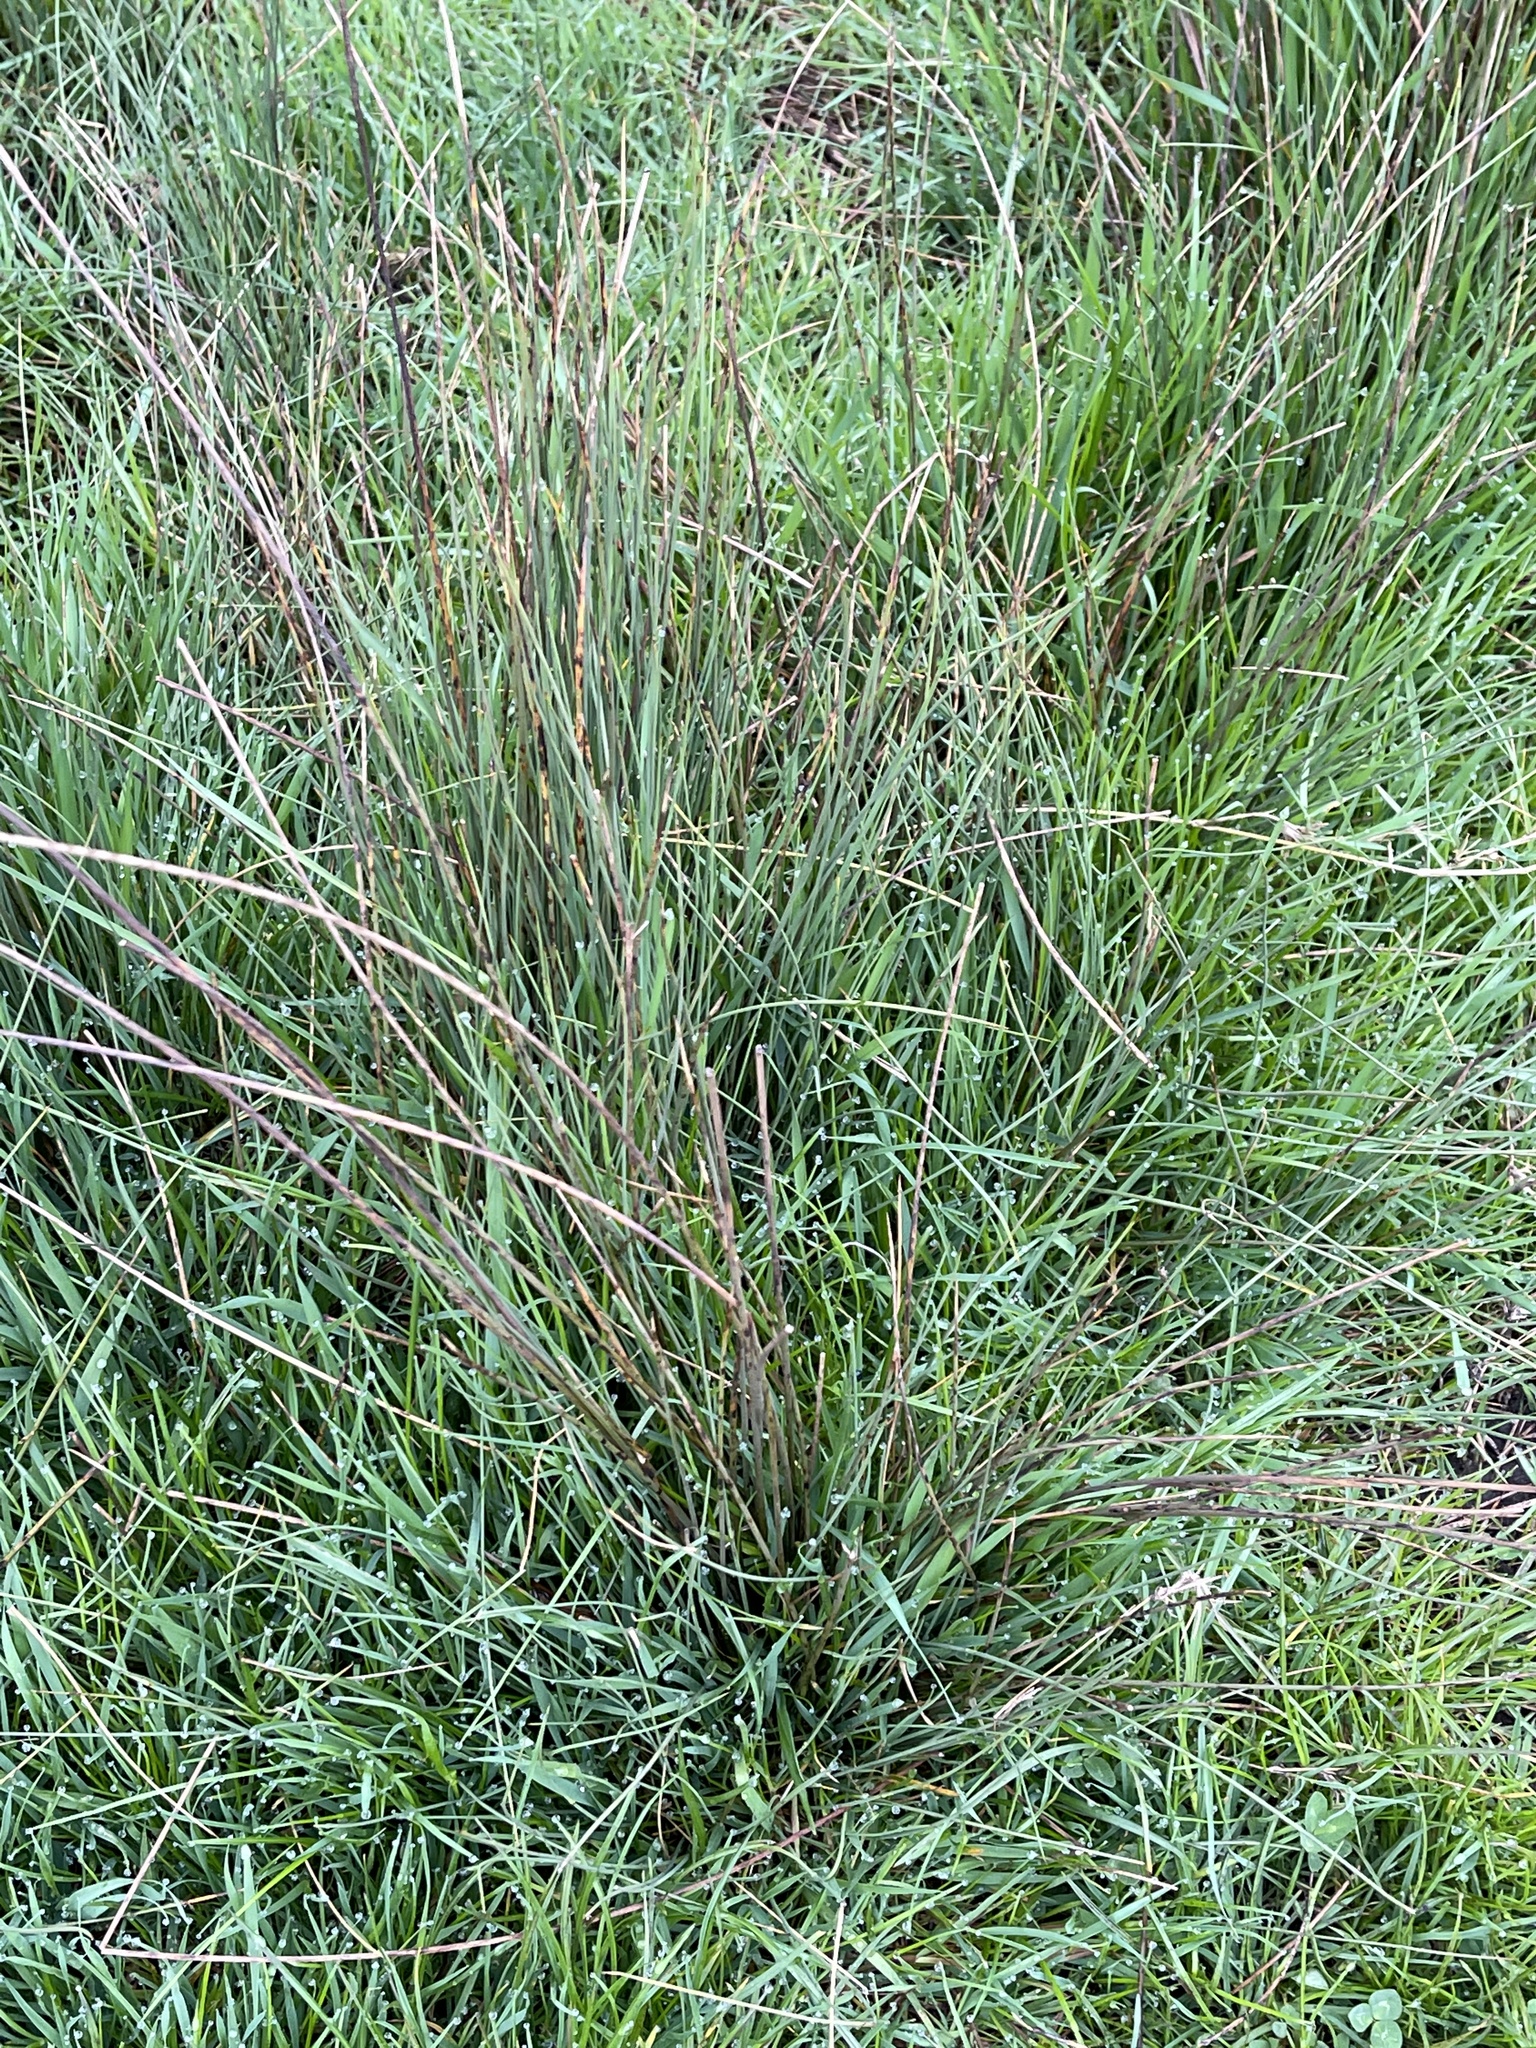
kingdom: Plantae
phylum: Tracheophyta
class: Liliopsida
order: Poales
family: Juncaceae
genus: Juncus
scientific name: Juncus inflexus
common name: Hard rush
